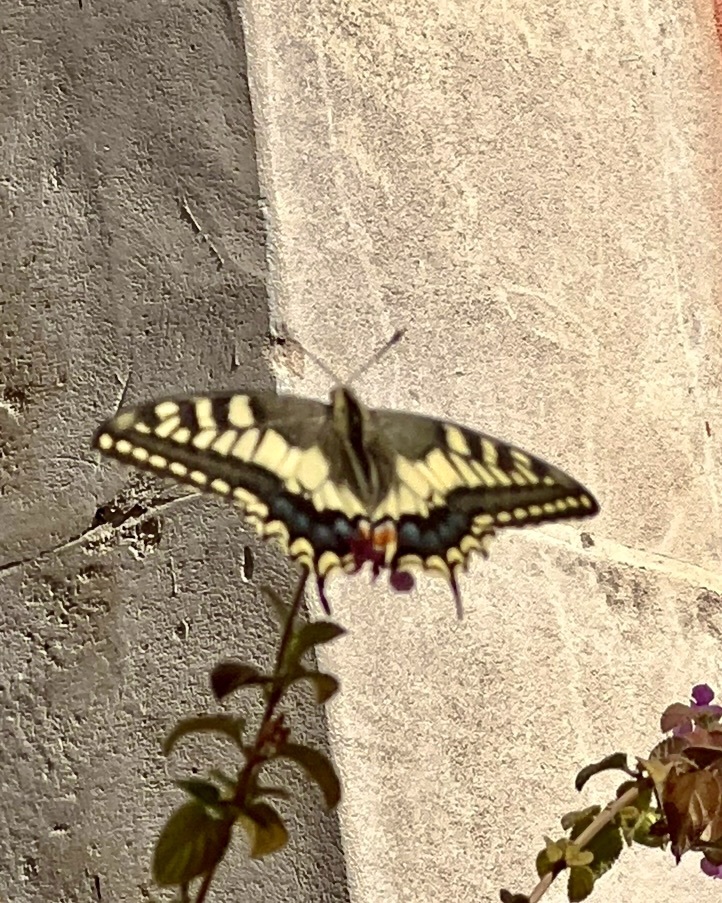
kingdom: Animalia
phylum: Arthropoda
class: Insecta
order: Lepidoptera
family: Papilionidae
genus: Papilio
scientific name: Papilio machaon
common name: Swallowtail
